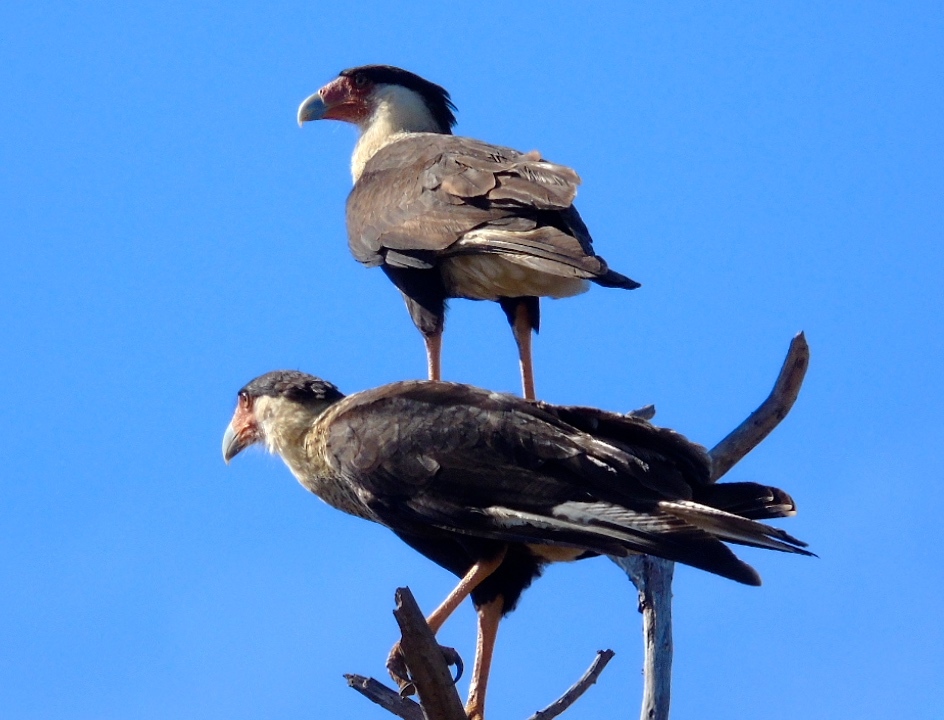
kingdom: Animalia
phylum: Chordata
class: Aves
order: Falconiformes
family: Falconidae
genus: Caracara
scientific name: Caracara plancus
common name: Southern caracara
